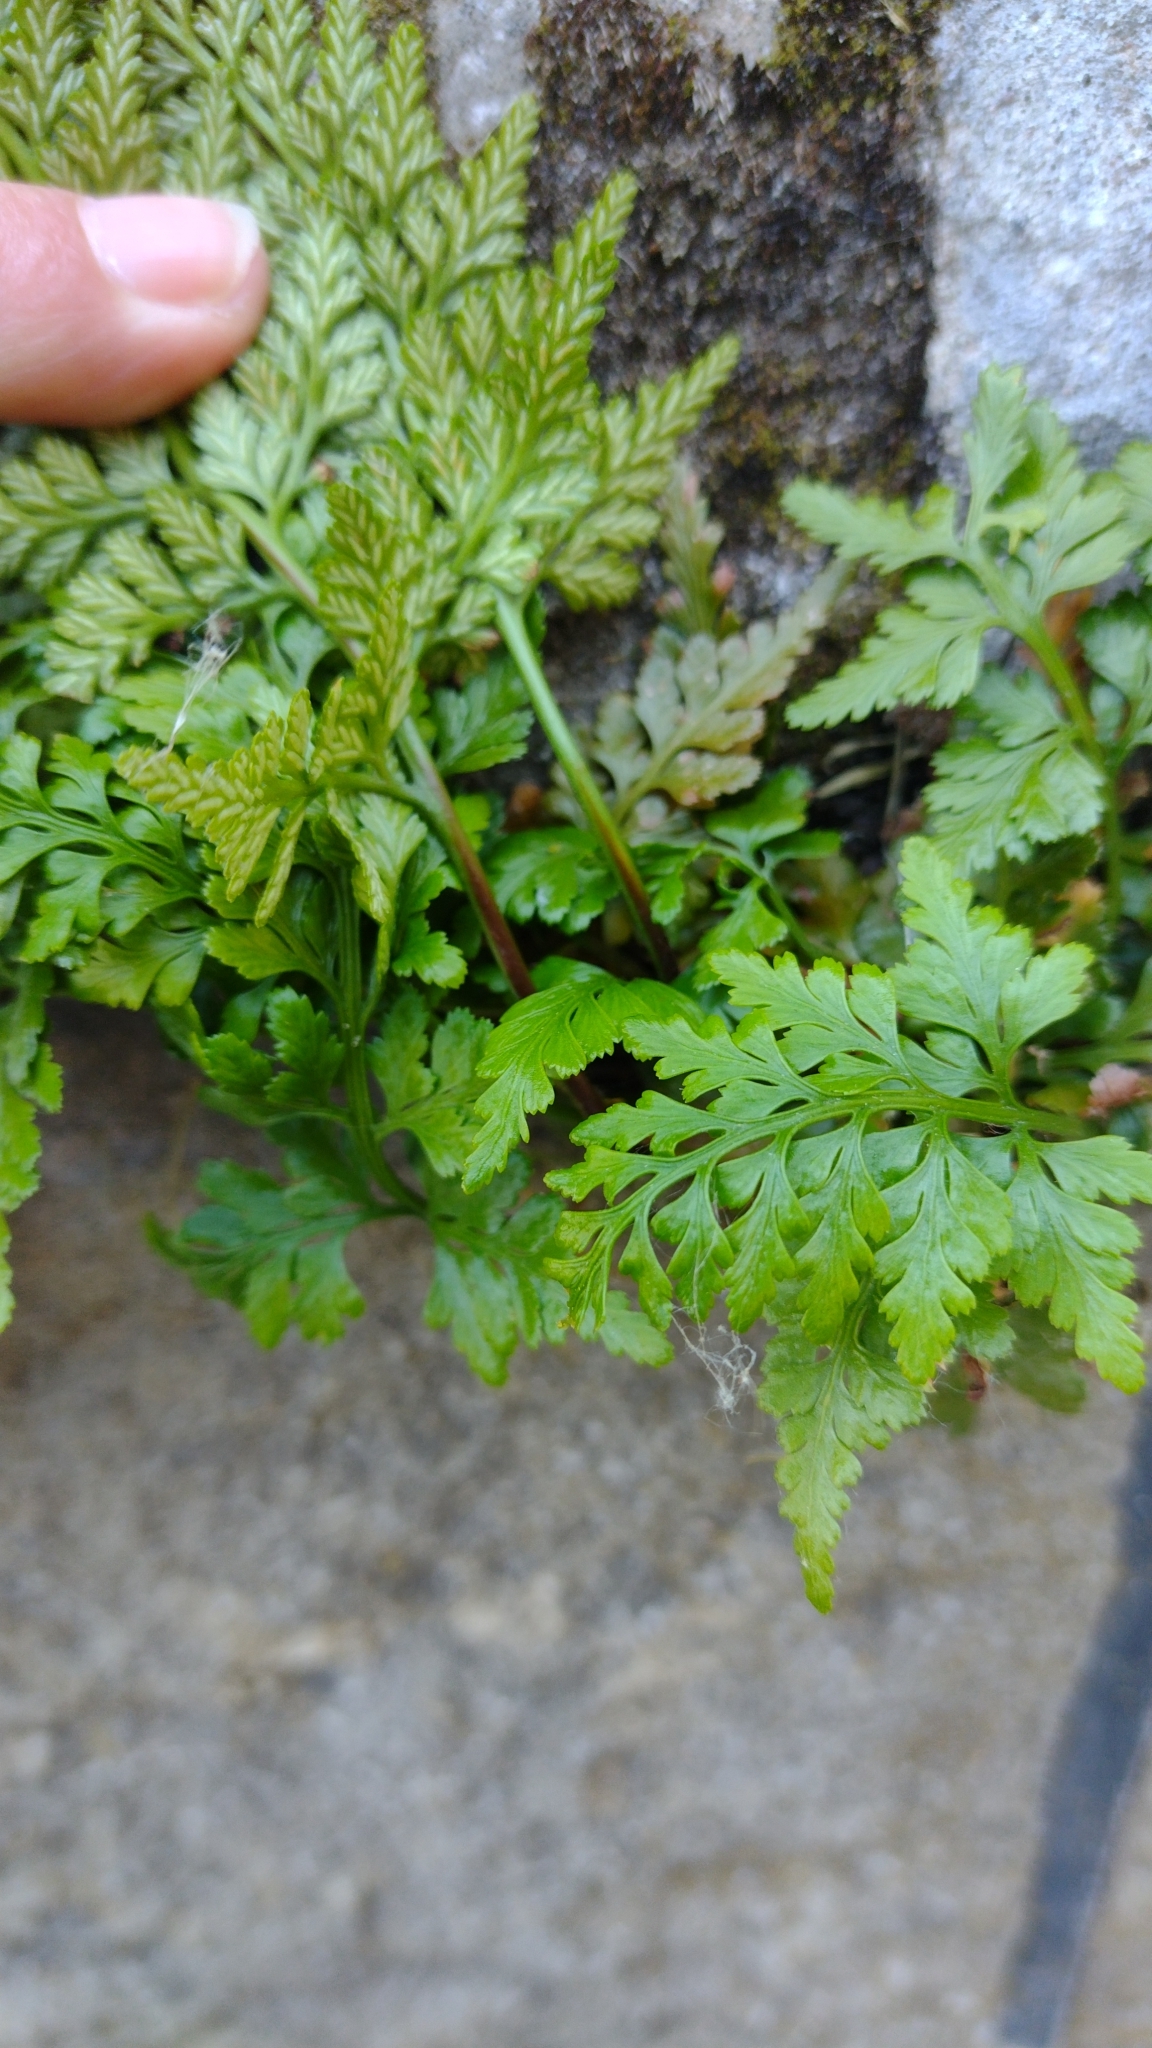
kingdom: Plantae
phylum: Tracheophyta
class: Polypodiopsida
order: Polypodiales
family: Aspleniaceae
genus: Asplenium
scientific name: Asplenium adiantum-nigrum
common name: Black spleenwort
